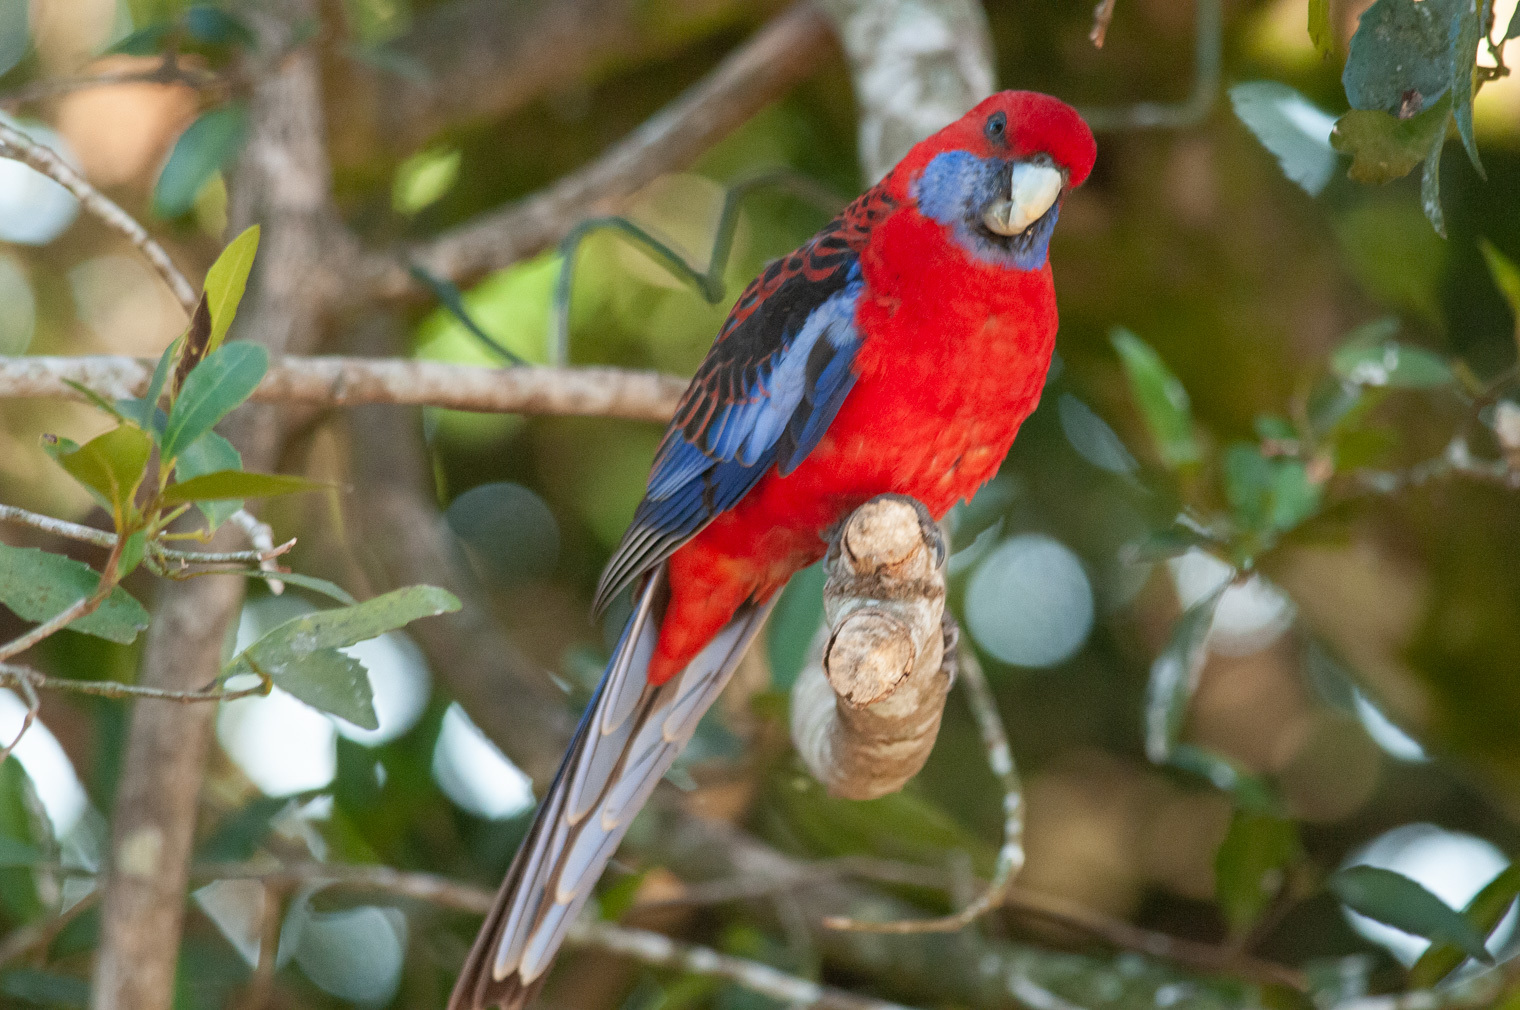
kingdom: Animalia
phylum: Chordata
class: Aves
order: Psittaciformes
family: Psittacidae
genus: Platycercus
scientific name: Platycercus elegans
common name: Crimson rosella
